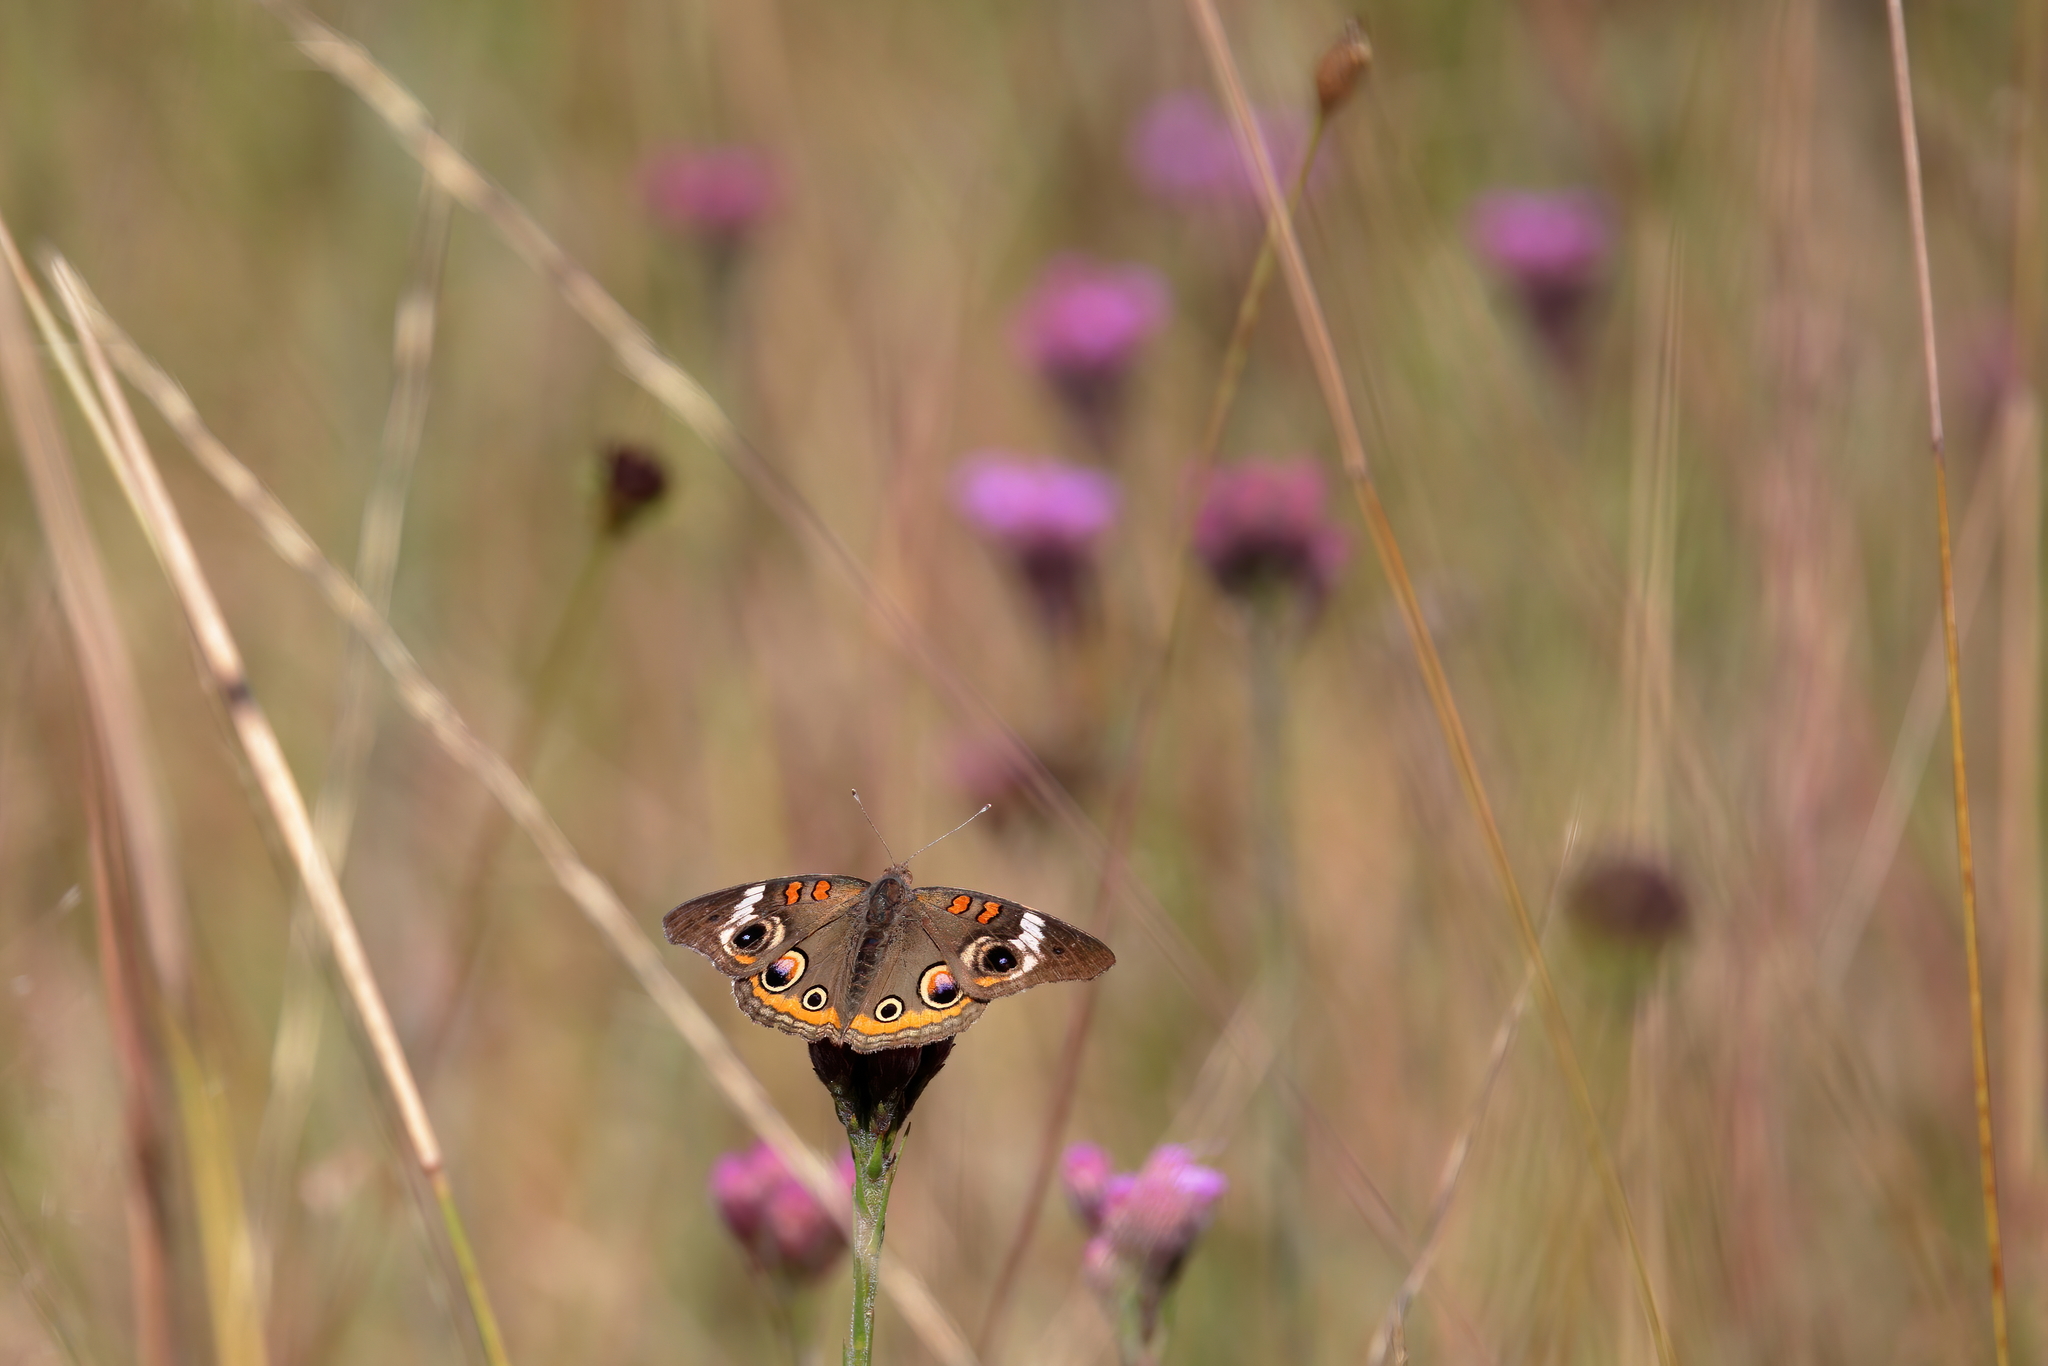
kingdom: Animalia
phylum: Arthropoda
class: Insecta
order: Lepidoptera
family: Nymphalidae
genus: Junonia
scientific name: Junonia coenia
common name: Common buckeye
